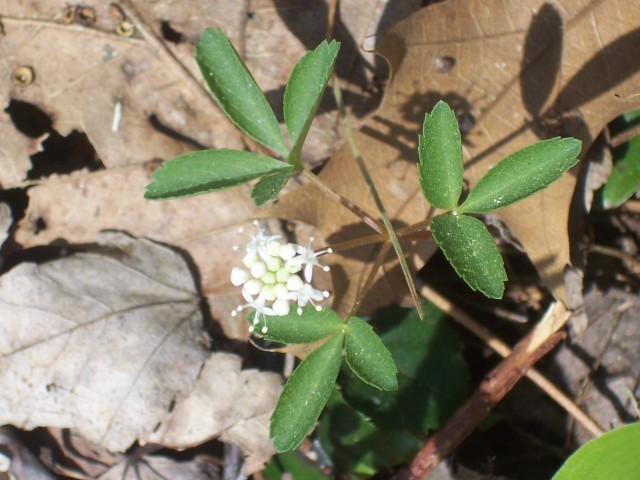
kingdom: Plantae
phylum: Tracheophyta
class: Magnoliopsida
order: Apiales
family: Araliaceae
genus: Panax
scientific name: Panax trifolius
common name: Dwarf ginseng
